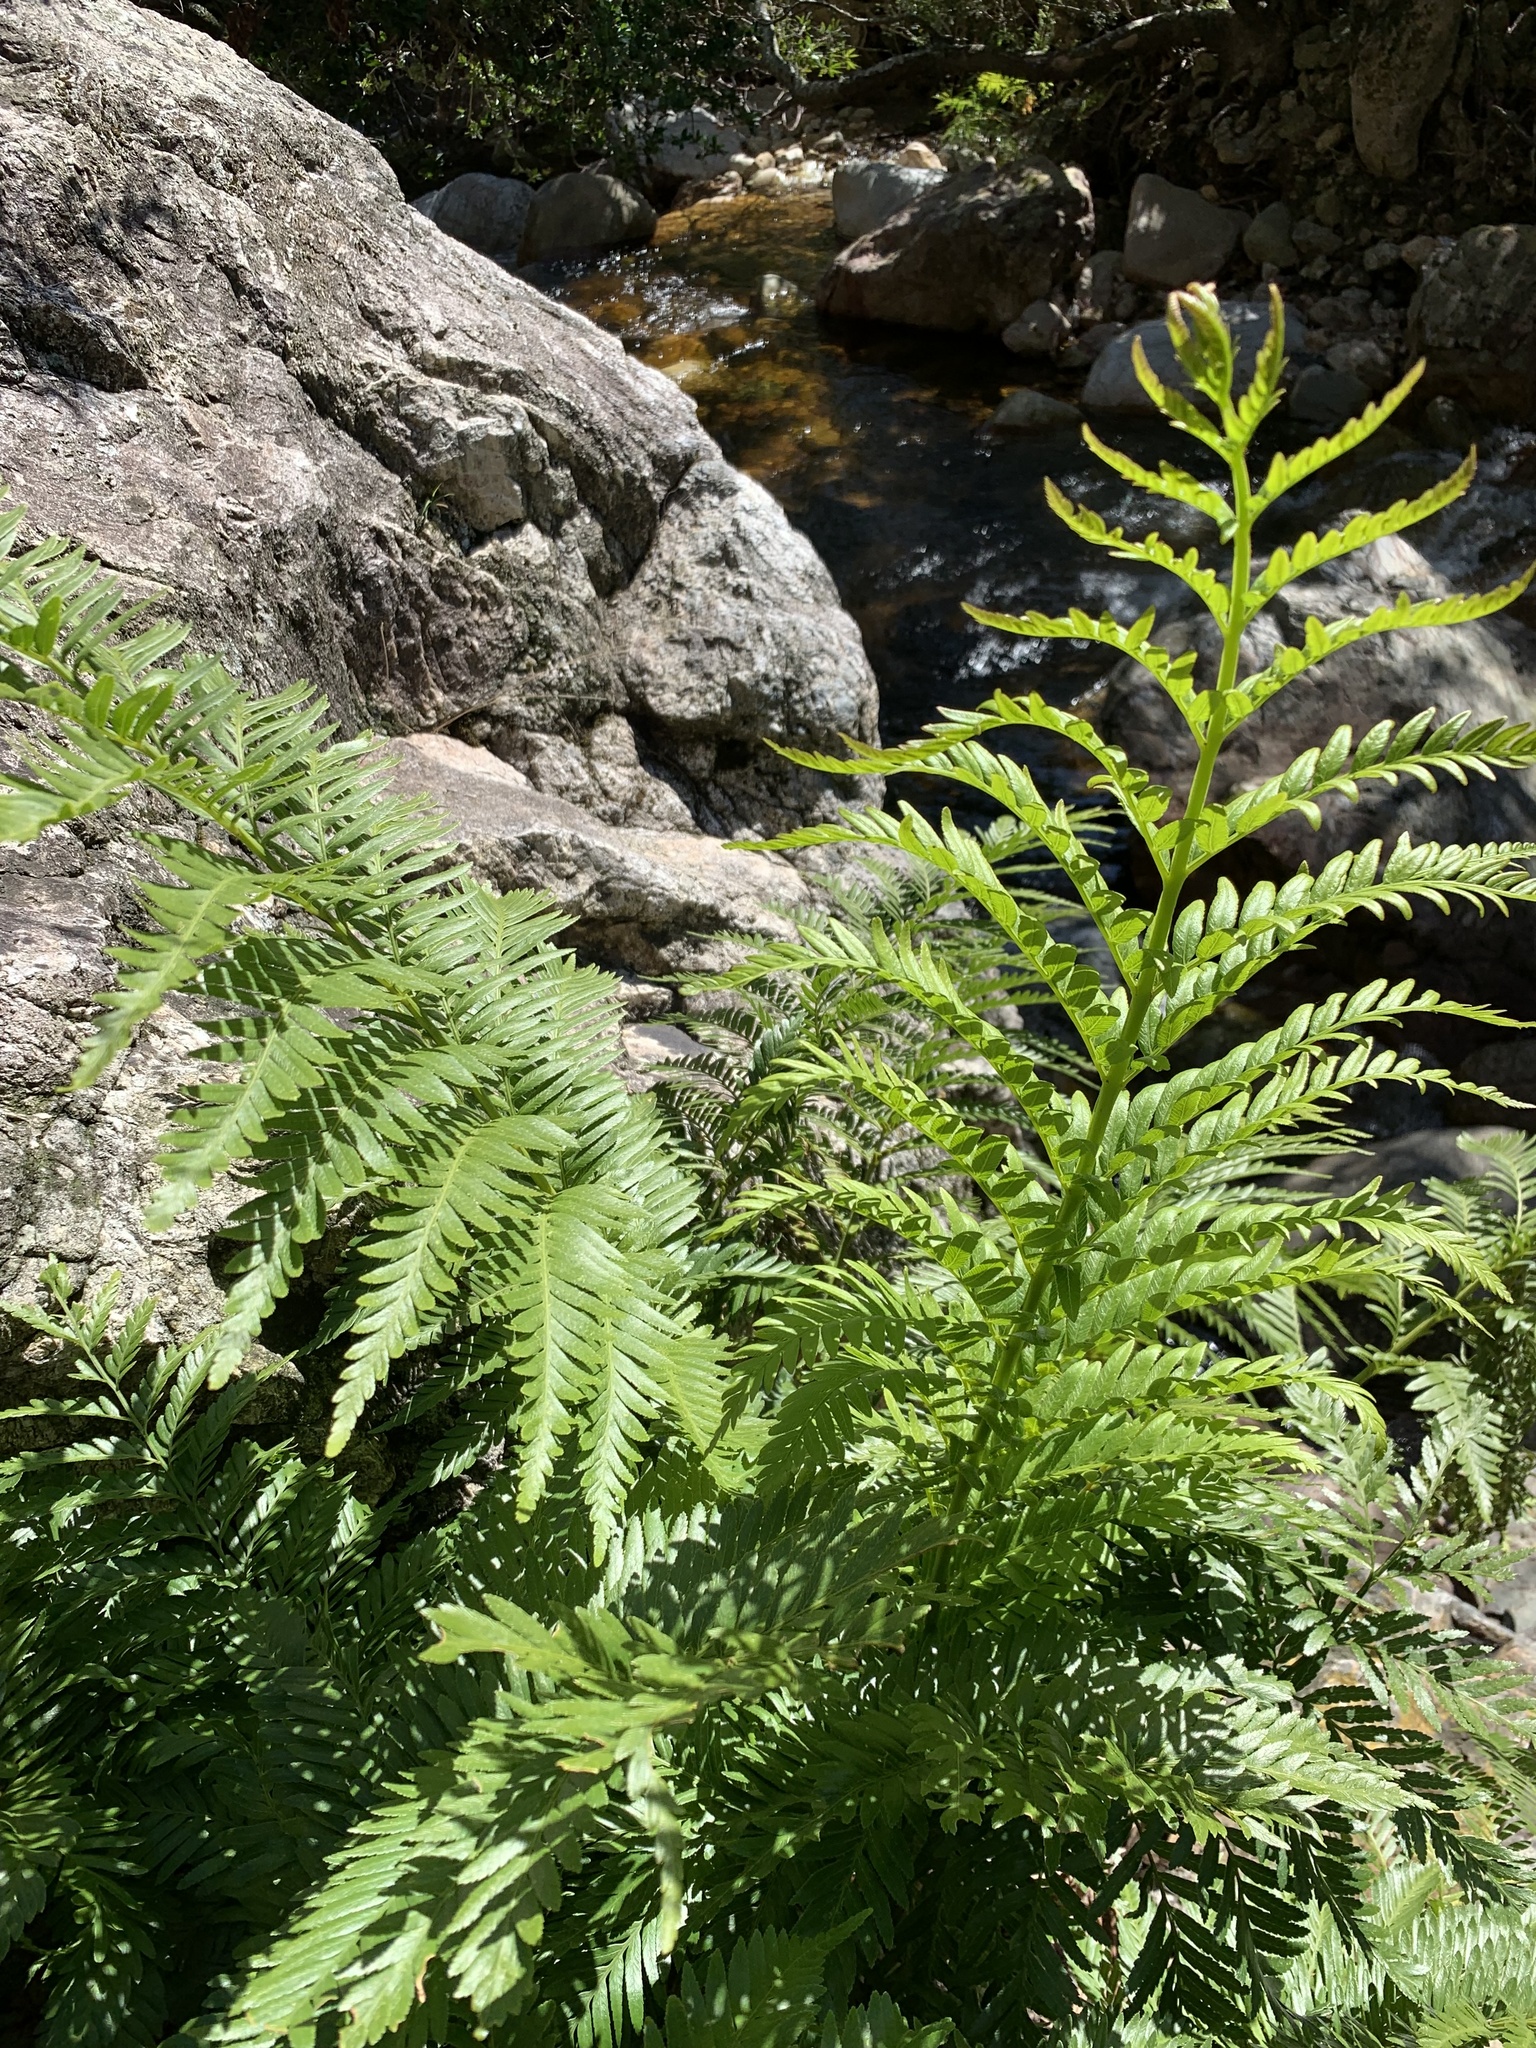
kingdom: Plantae
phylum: Tracheophyta
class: Polypodiopsida
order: Osmundales
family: Osmundaceae
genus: Todea
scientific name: Todea barbara
